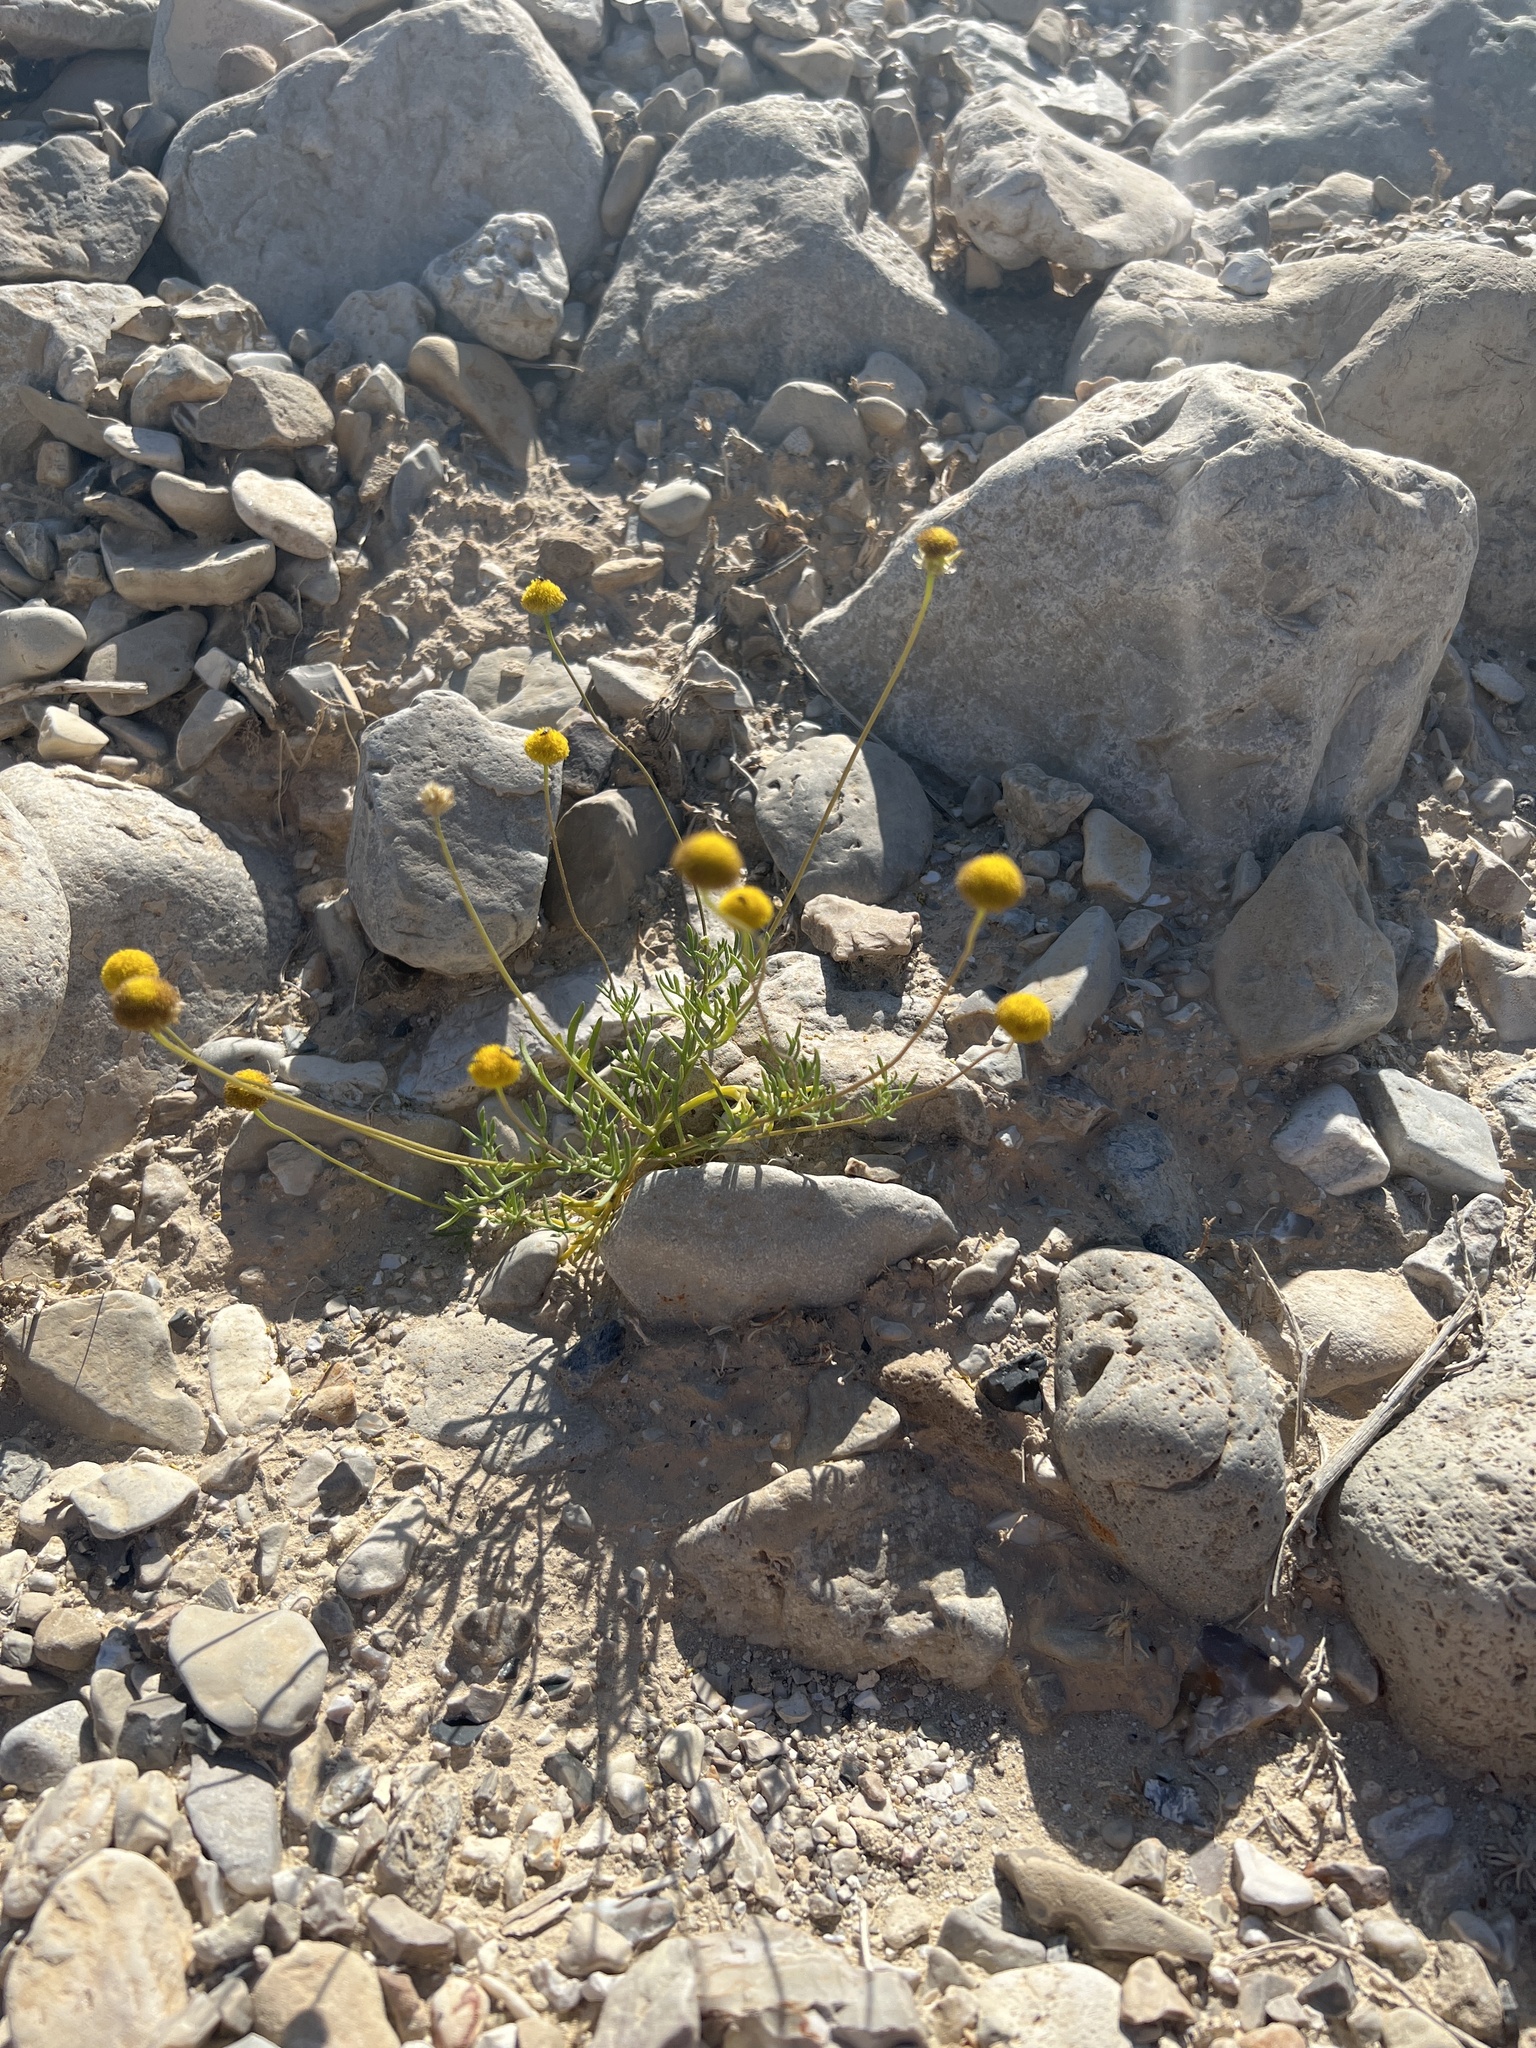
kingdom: Plantae
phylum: Tracheophyta
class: Magnoliopsida
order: Asterales
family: Asteraceae
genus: Otoglyphis
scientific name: Otoglyphis factorovskyi
